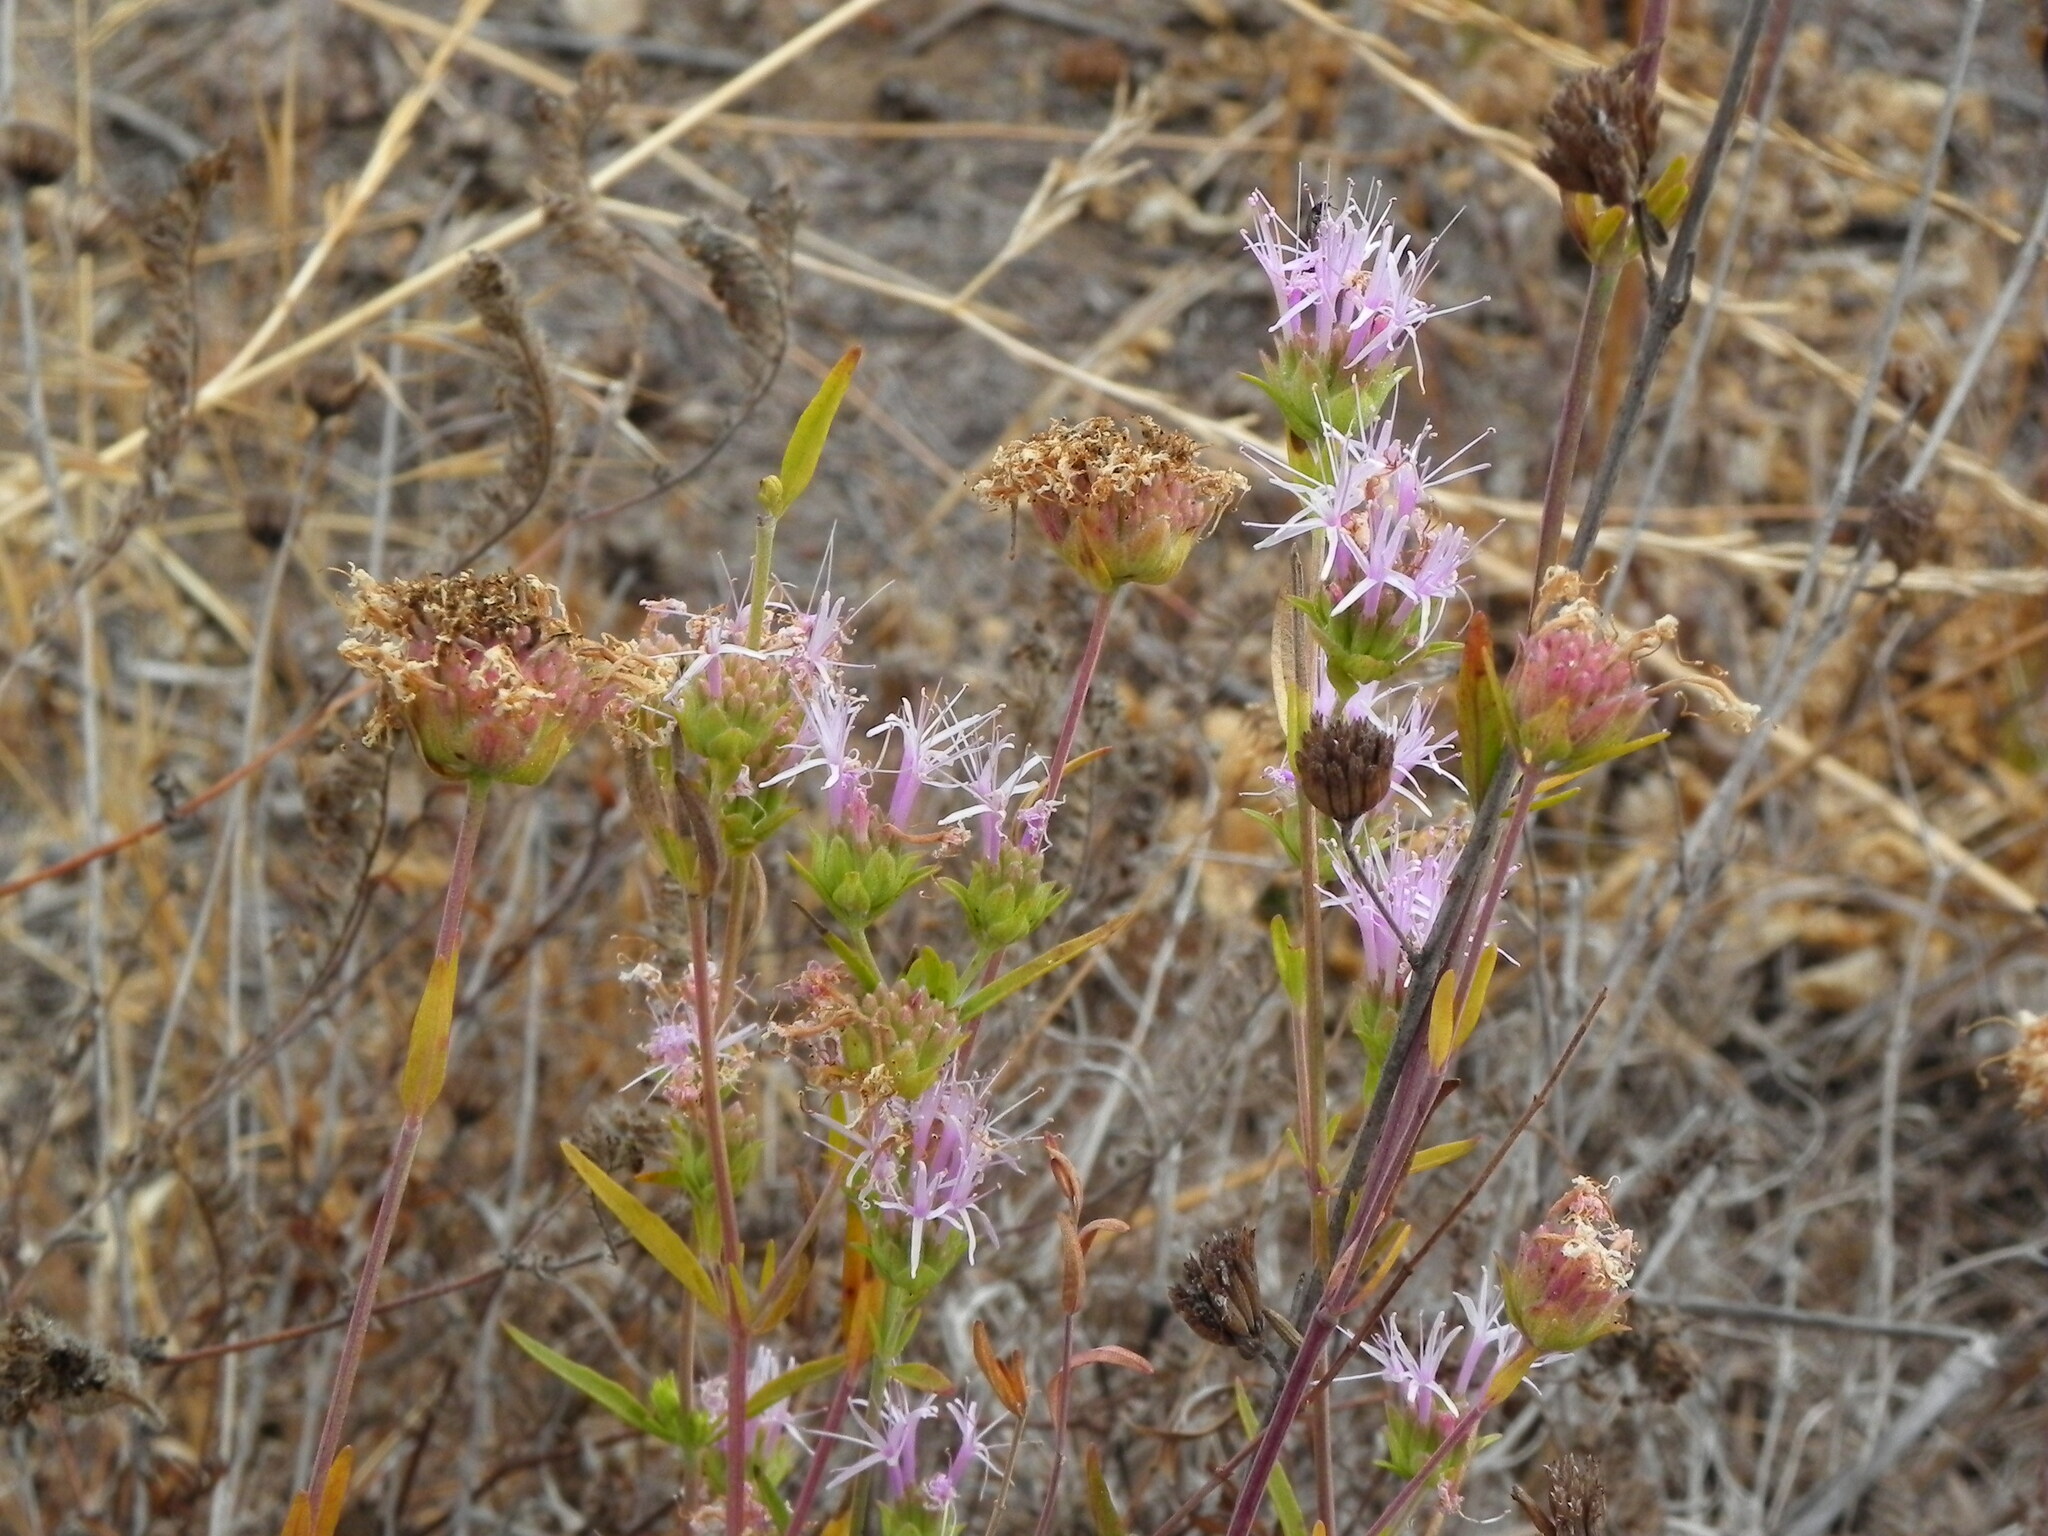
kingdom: Plantae
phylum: Tracheophyta
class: Magnoliopsida
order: Lamiales
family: Lamiaceae
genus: Monardella
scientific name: Monardella viminea
